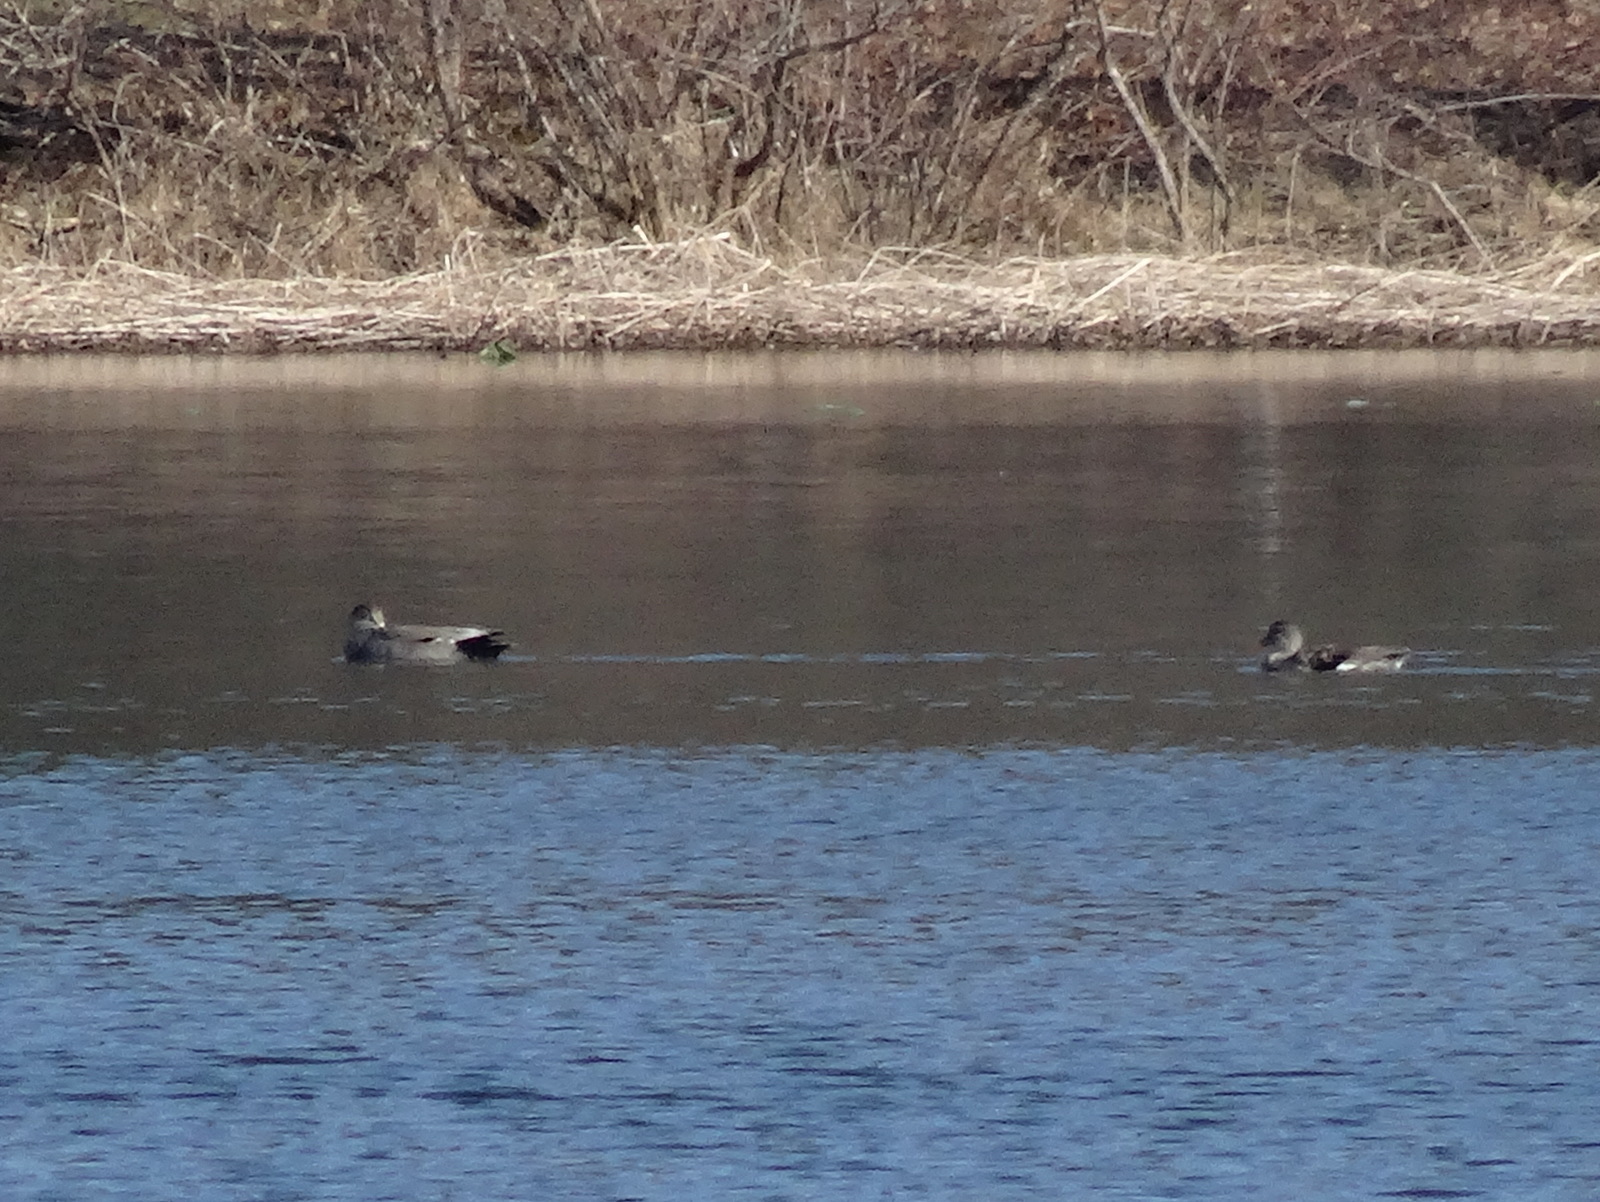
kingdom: Animalia
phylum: Chordata
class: Aves
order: Anseriformes
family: Anatidae
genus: Mareca
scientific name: Mareca strepera
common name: Gadwall
